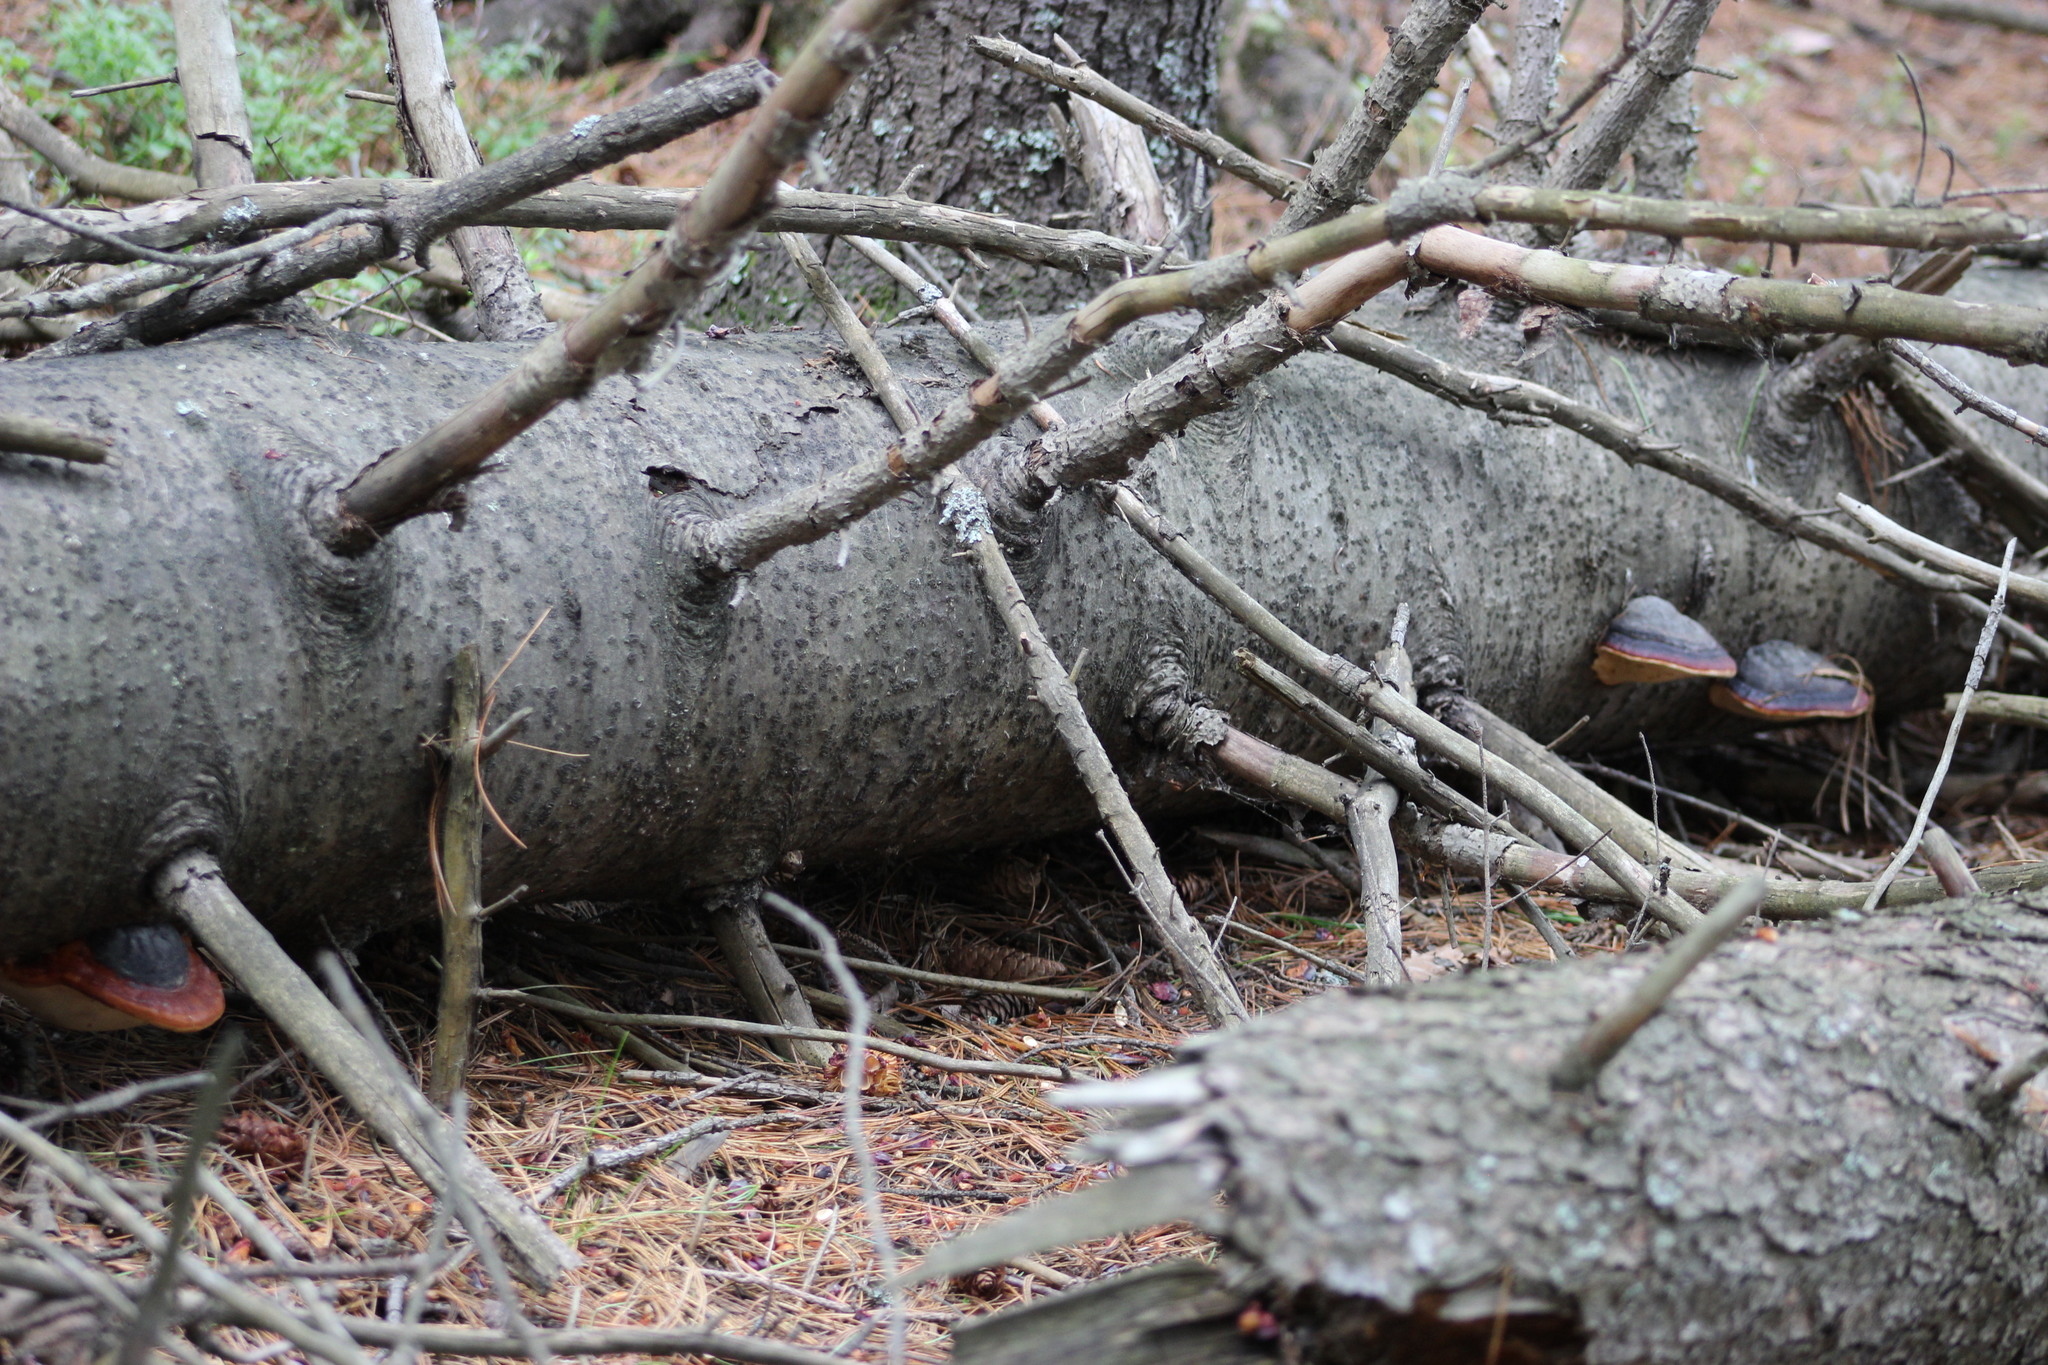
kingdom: Fungi
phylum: Basidiomycota
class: Agaricomycetes
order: Polyporales
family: Fomitopsidaceae
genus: Fomitopsis
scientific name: Fomitopsis pinicola
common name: Red-belted bracket
